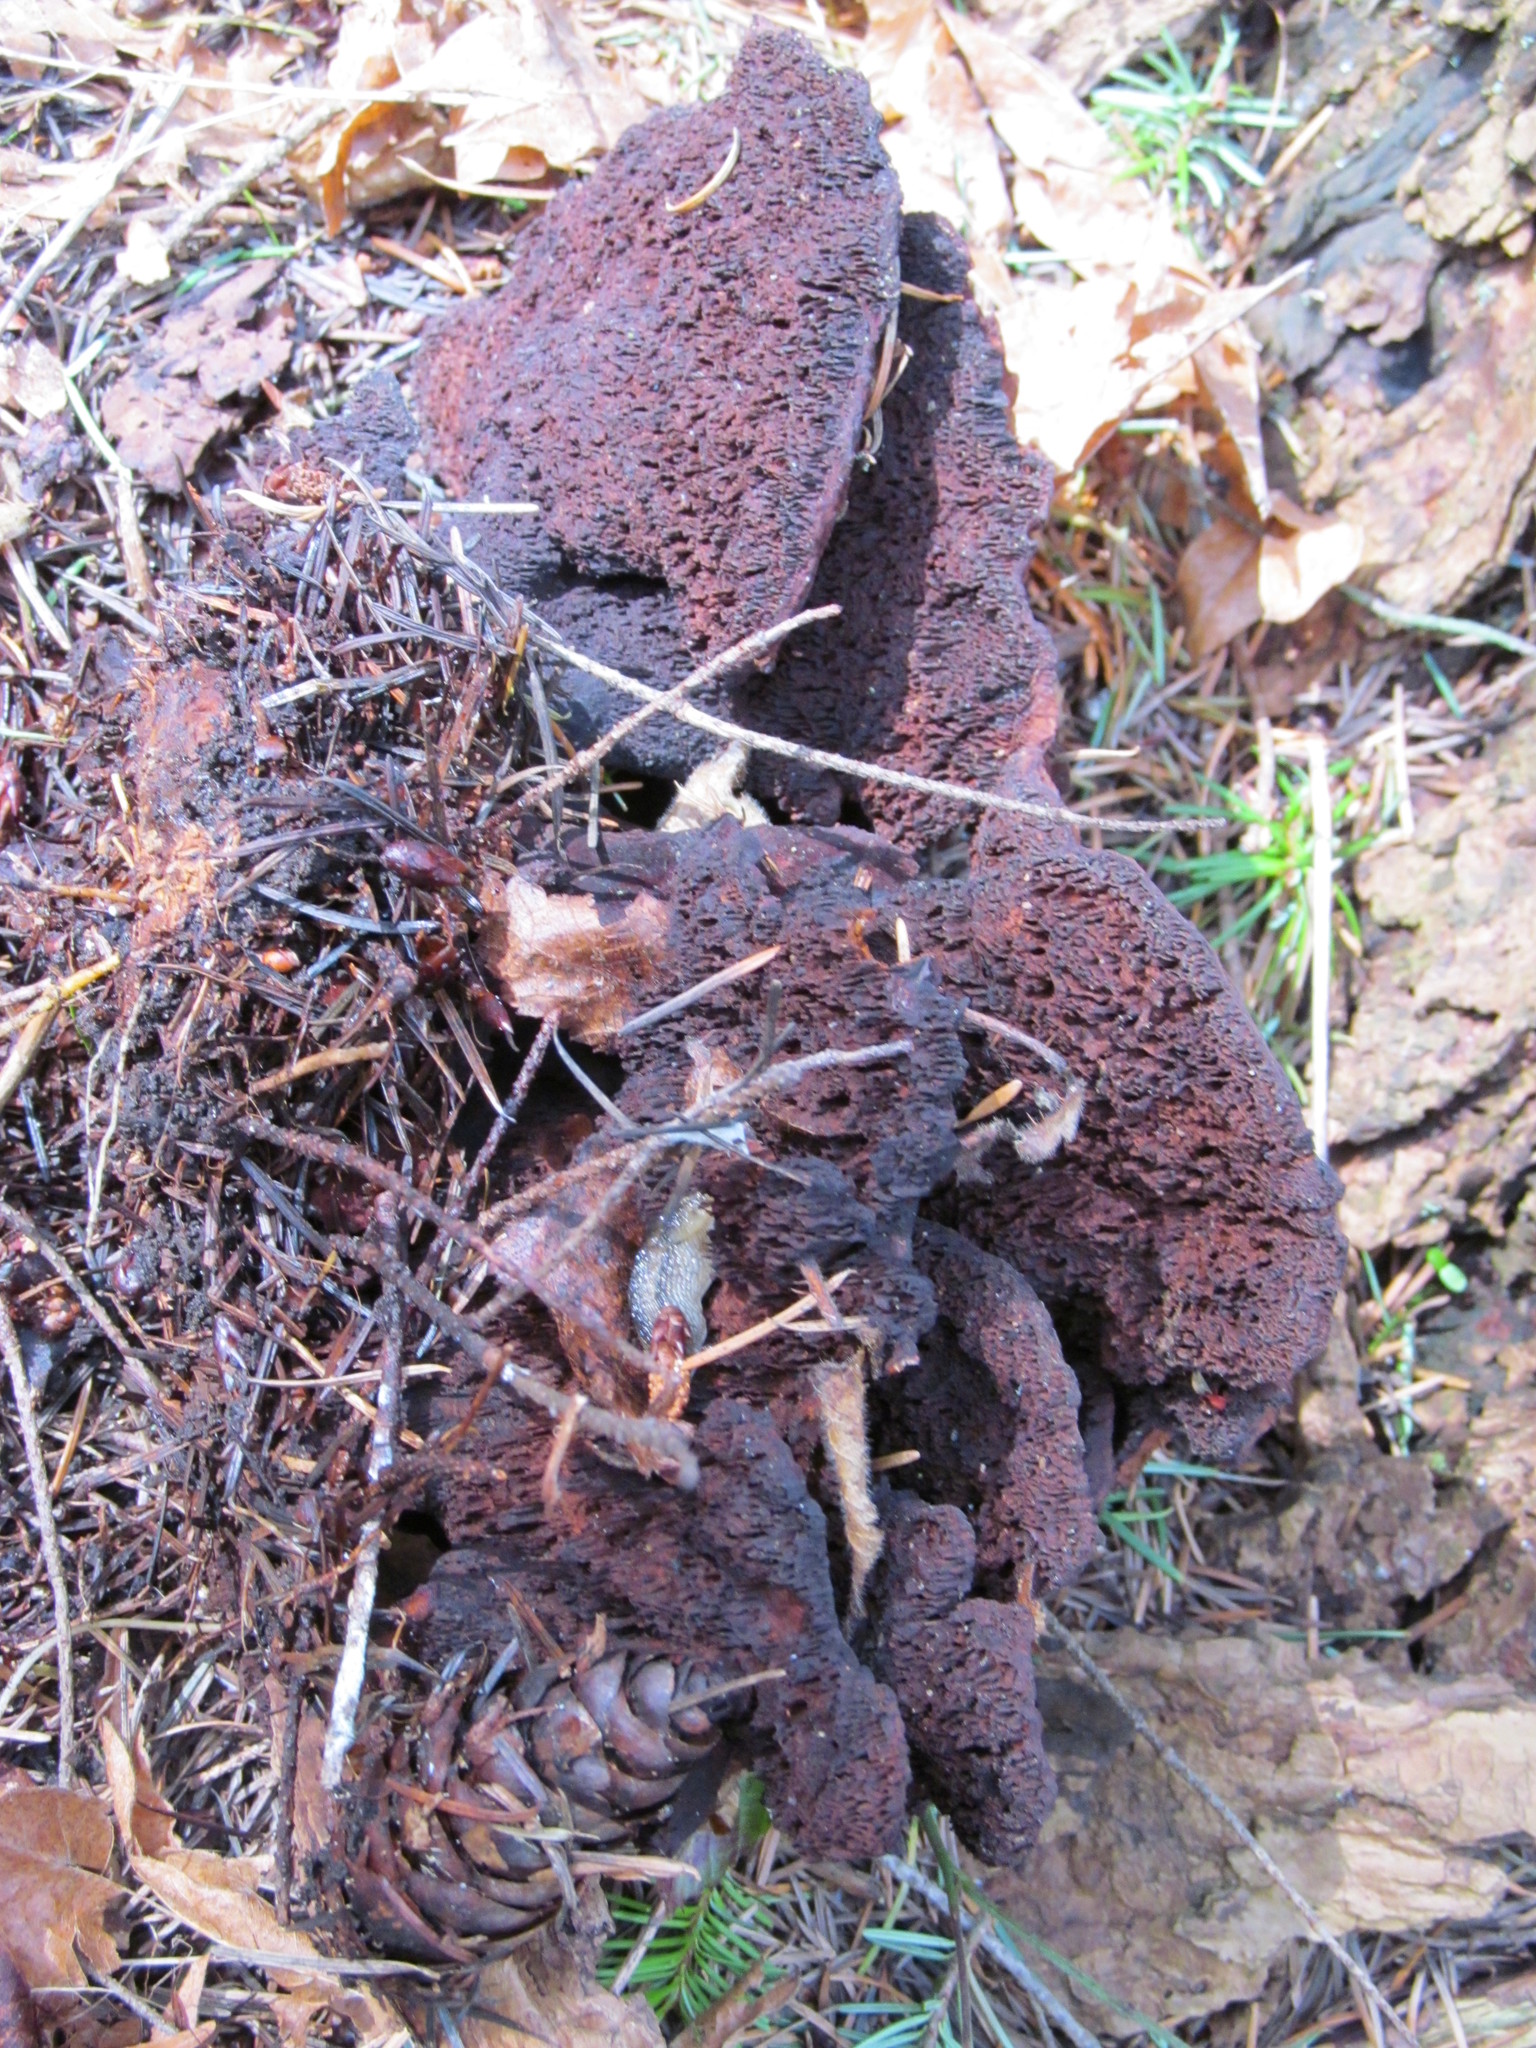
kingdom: Fungi
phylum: Basidiomycota
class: Agaricomycetes
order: Polyporales
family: Laetiporaceae
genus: Phaeolus
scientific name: Phaeolus schweinitzii
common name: Dyer's mazegill
